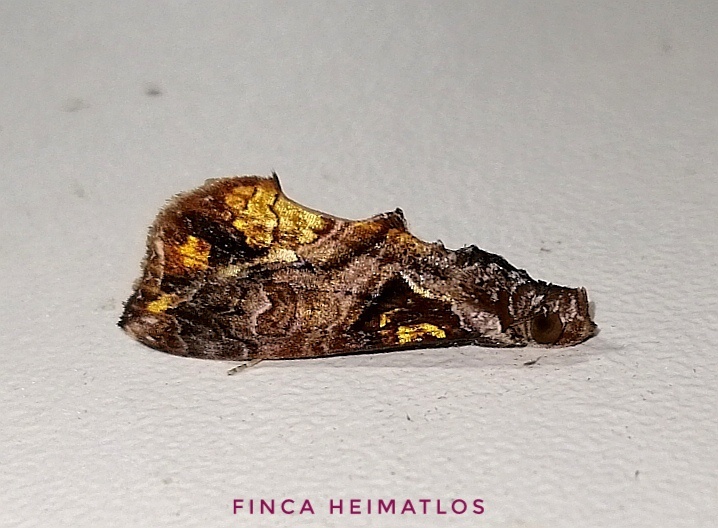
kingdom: Animalia
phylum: Arthropoda
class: Insecta
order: Lepidoptera
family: Erebidae
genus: Plusiodonta
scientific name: Plusiodonta clavifera
